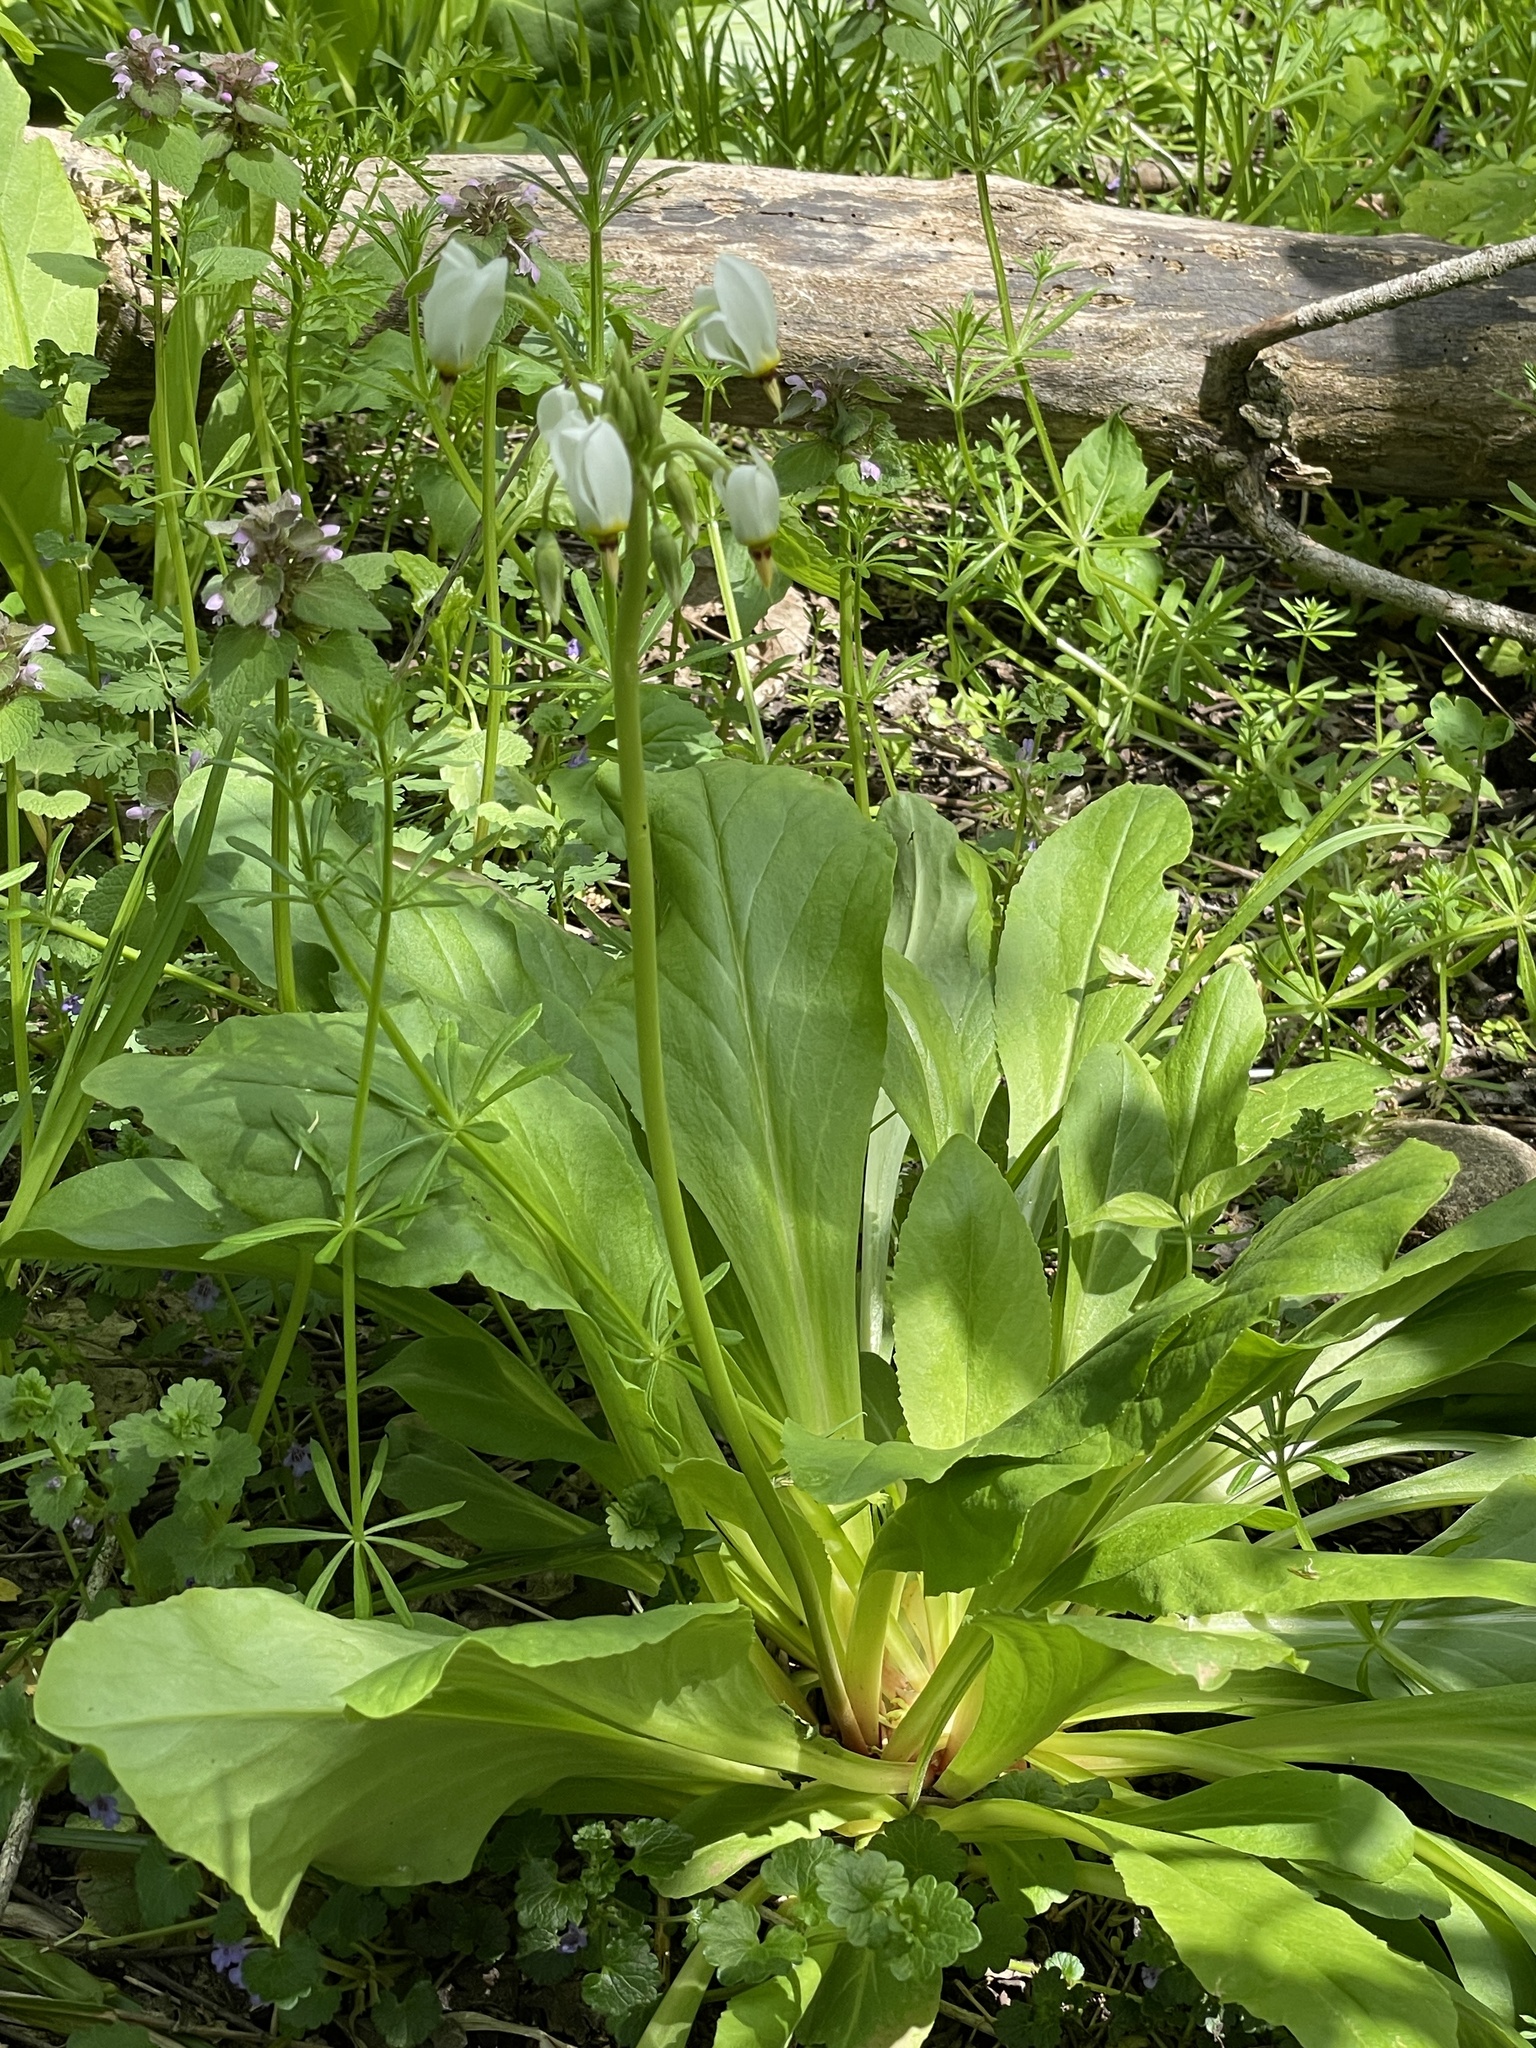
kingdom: Plantae
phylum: Tracheophyta
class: Magnoliopsida
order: Ericales
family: Primulaceae
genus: Dodecatheon
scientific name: Dodecatheon meadia
